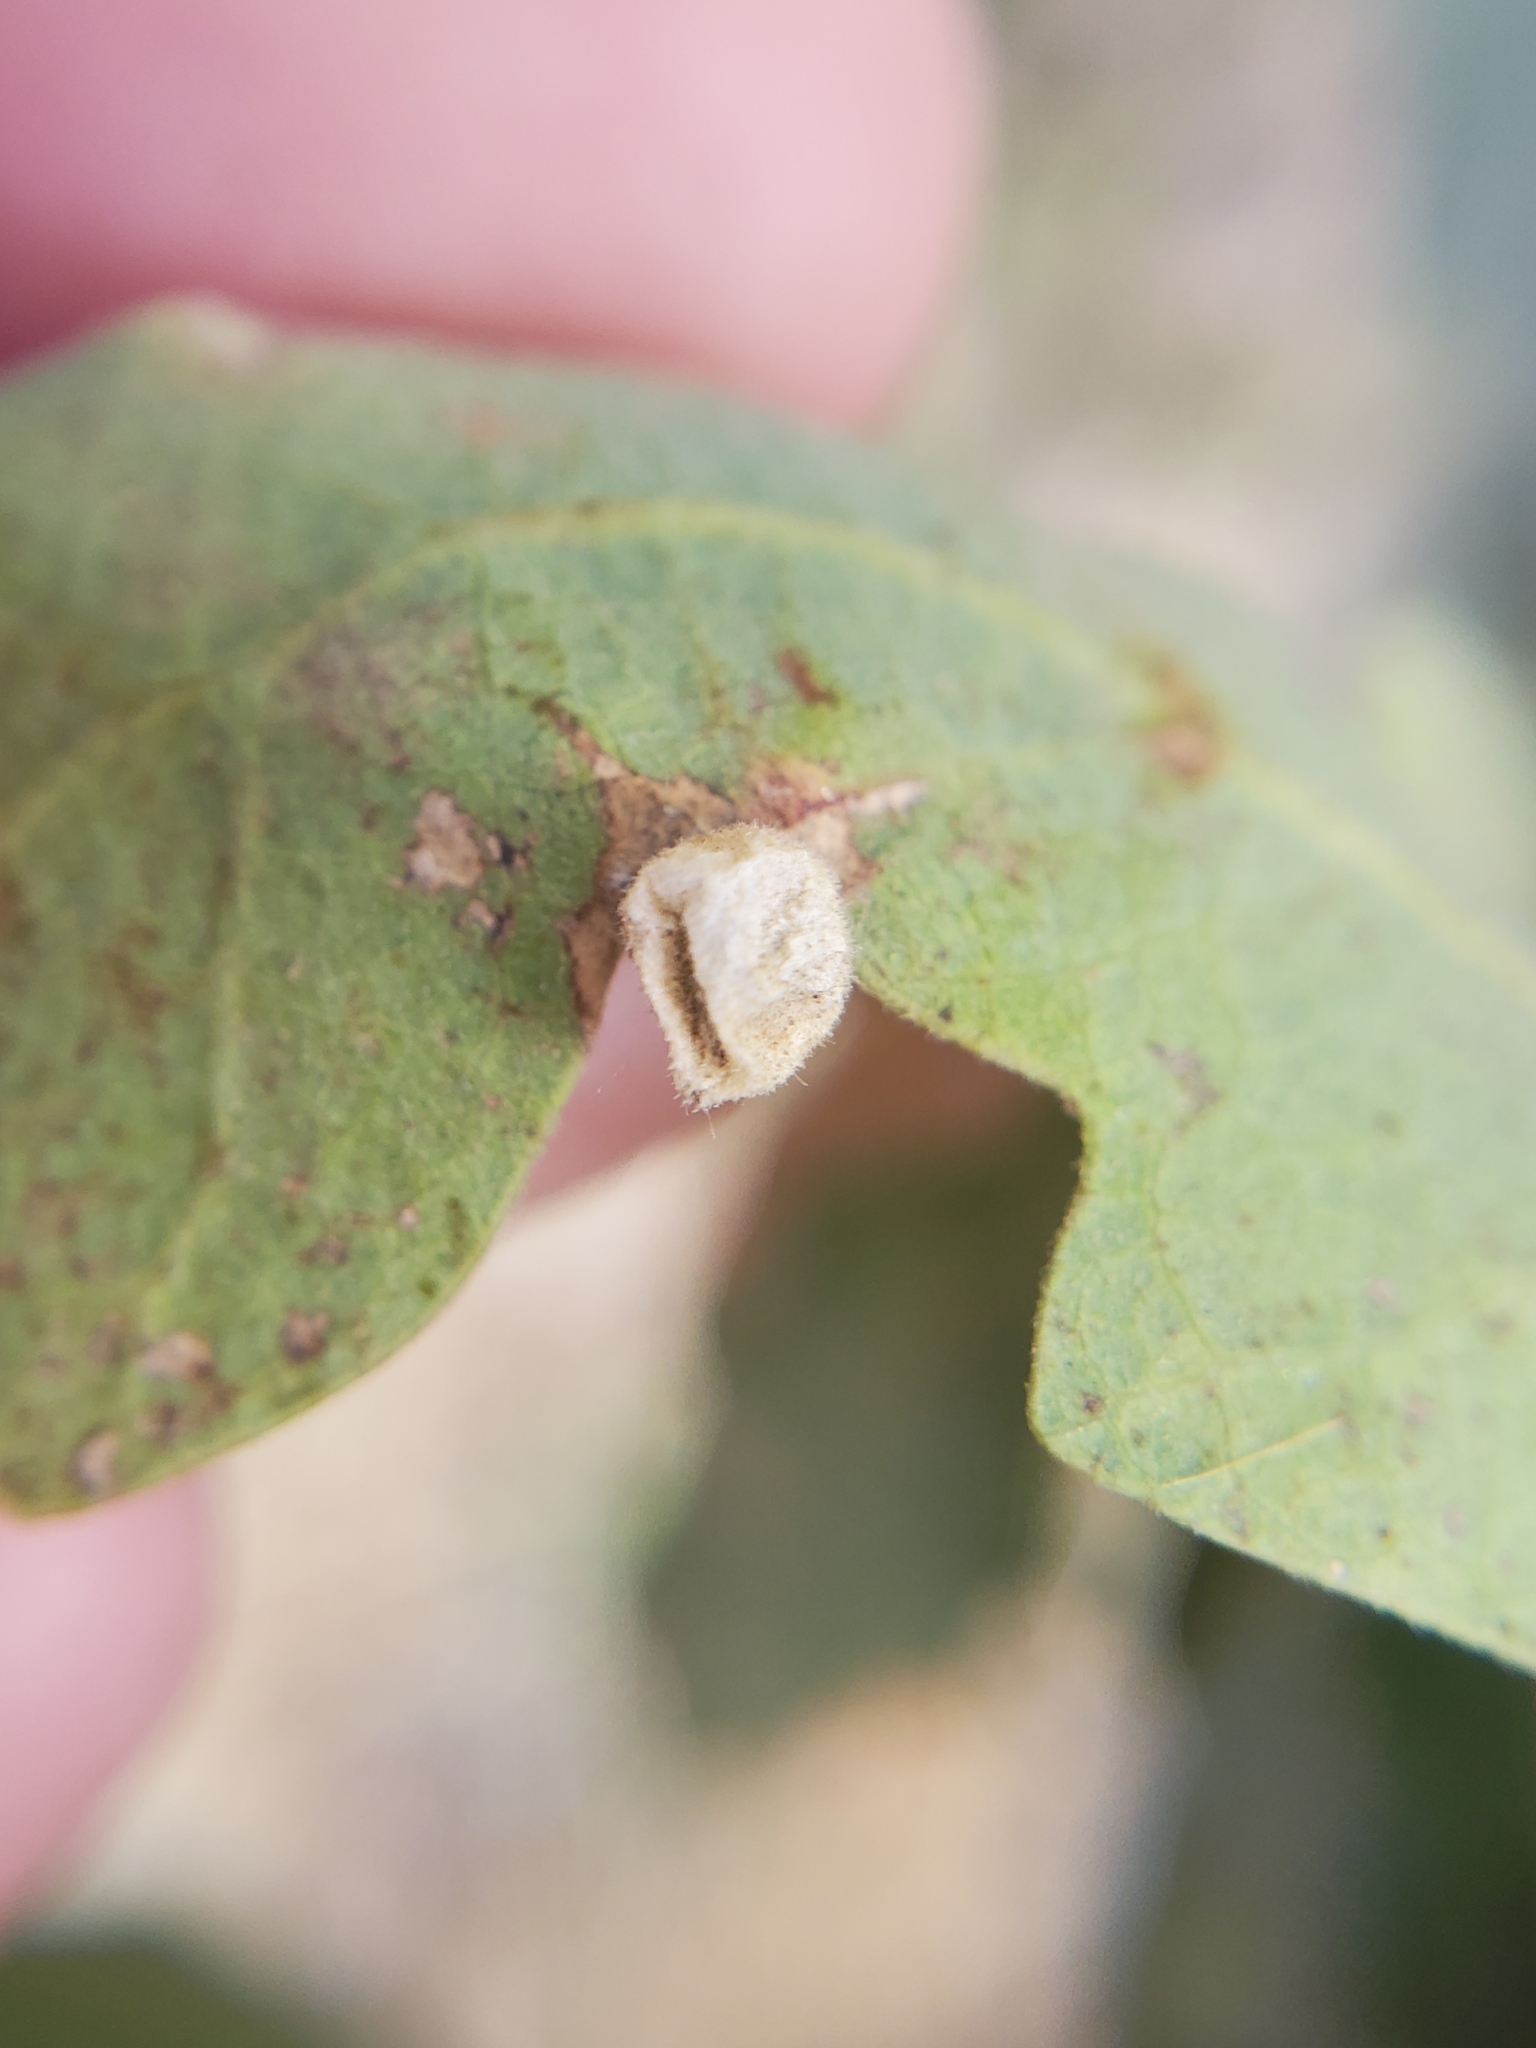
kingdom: Animalia
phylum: Arthropoda
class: Insecta
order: Hymenoptera
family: Cynipidae
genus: Andricus
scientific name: Andricus
